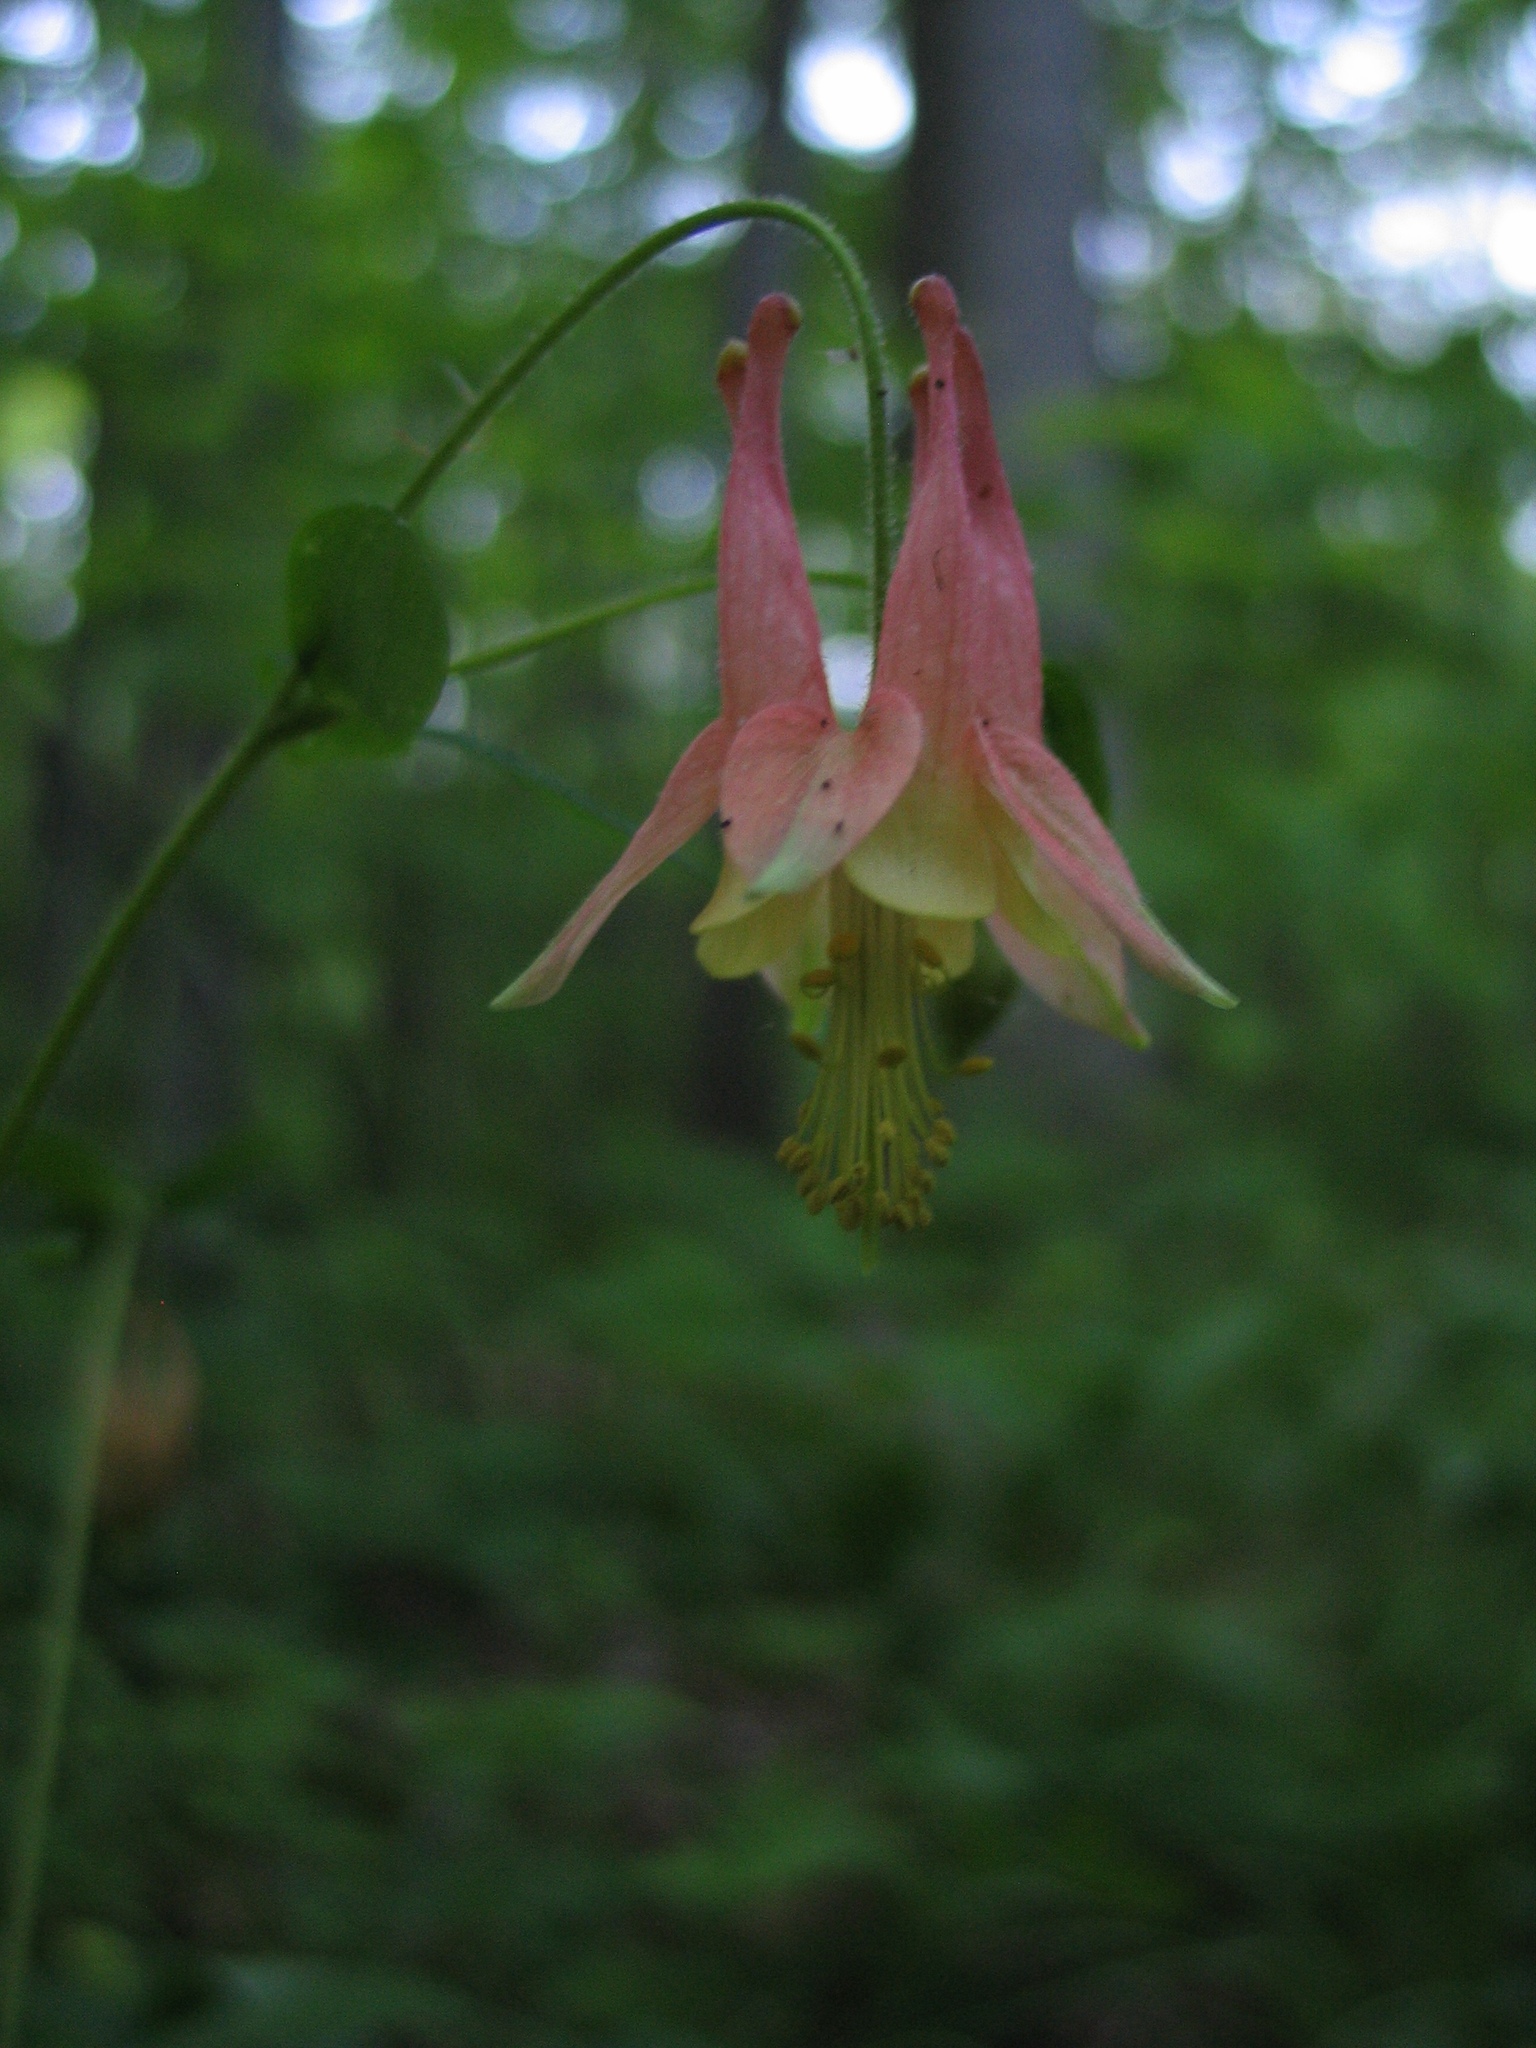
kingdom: Plantae
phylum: Tracheophyta
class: Magnoliopsida
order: Ranunculales
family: Ranunculaceae
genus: Aquilegia
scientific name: Aquilegia canadensis
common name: American columbine
